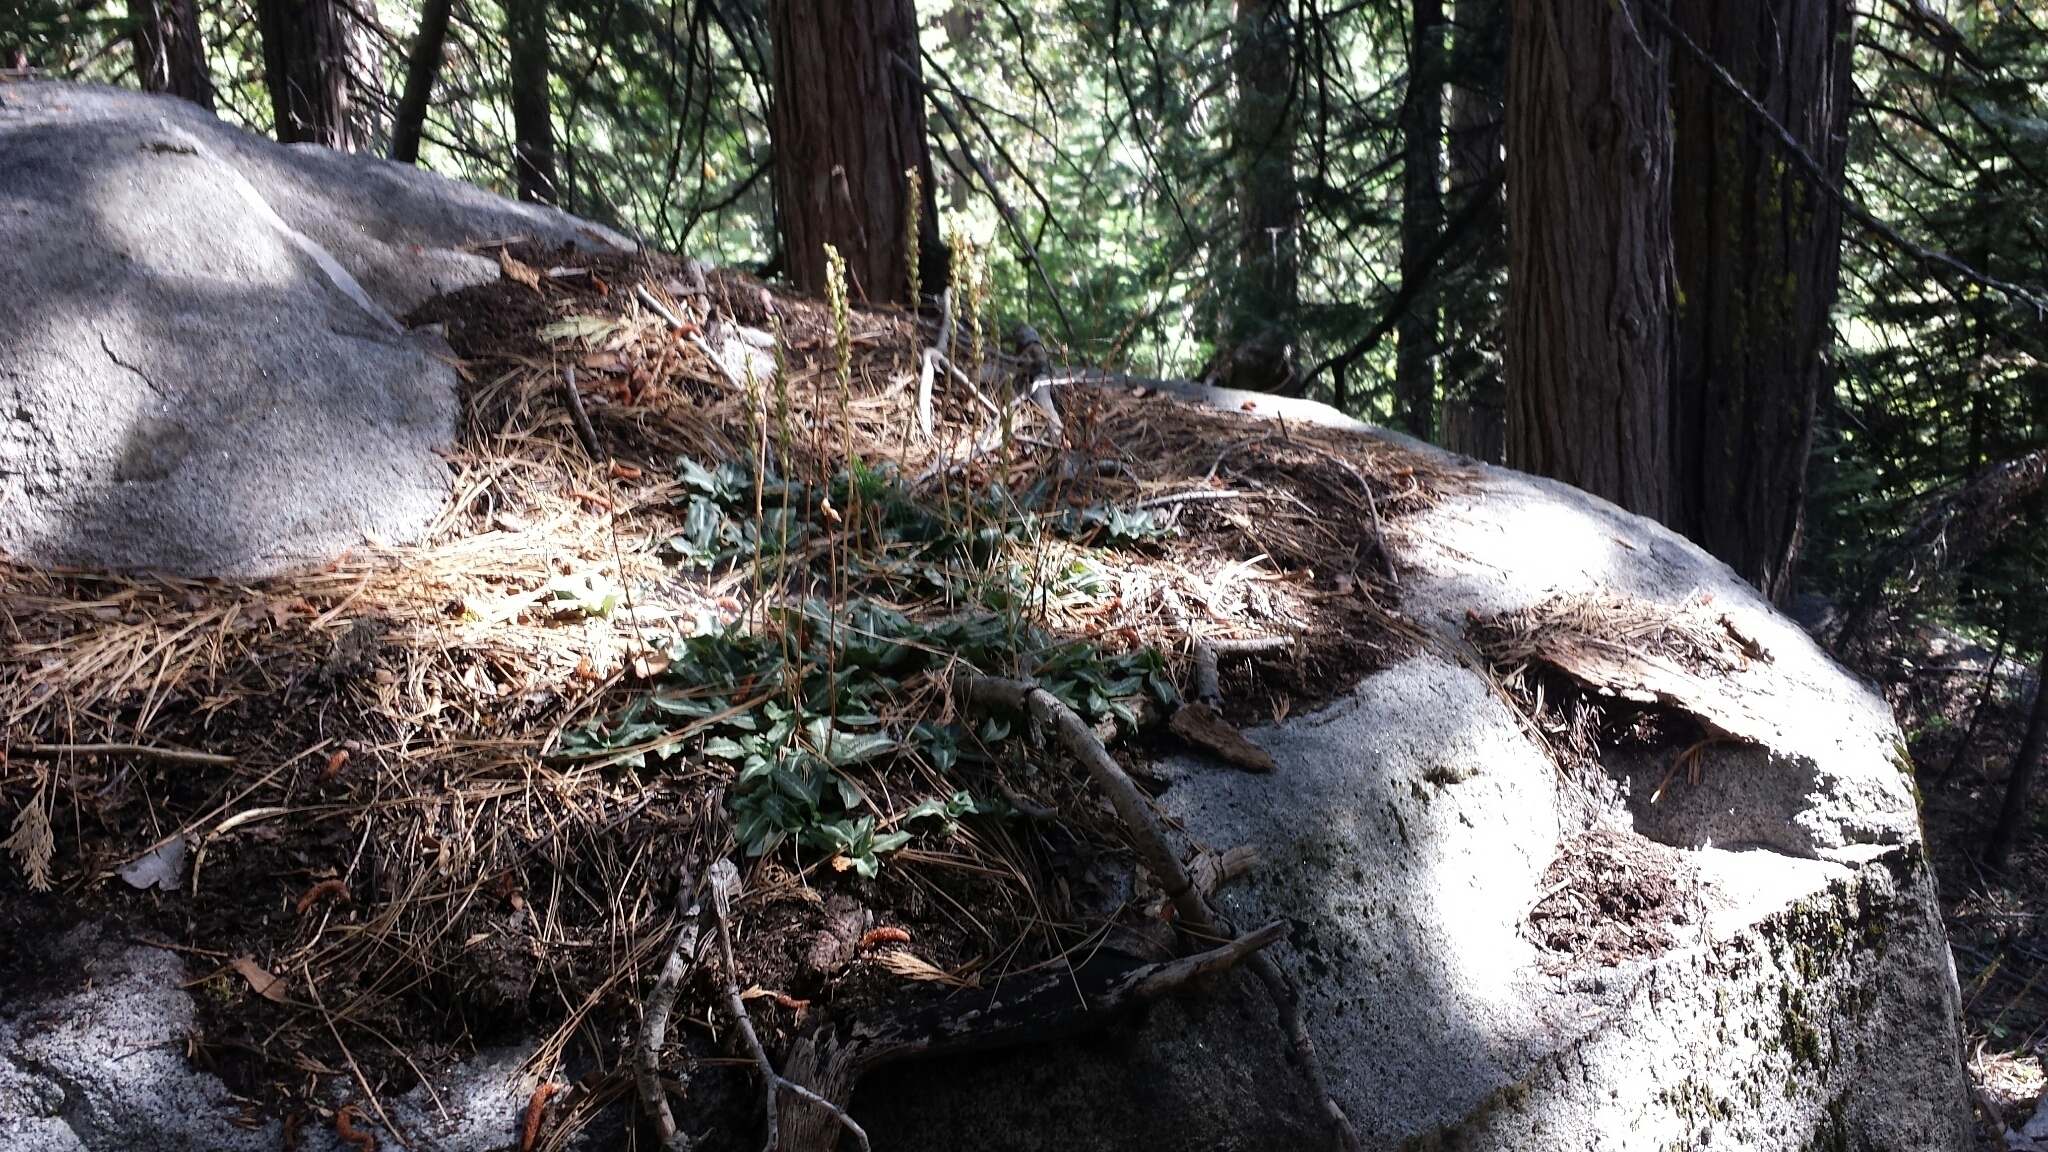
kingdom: Plantae
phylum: Tracheophyta
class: Liliopsida
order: Asparagales
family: Orchidaceae
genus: Goodyera
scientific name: Goodyera oblongifolia
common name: Giant rattlesnake-plantain
